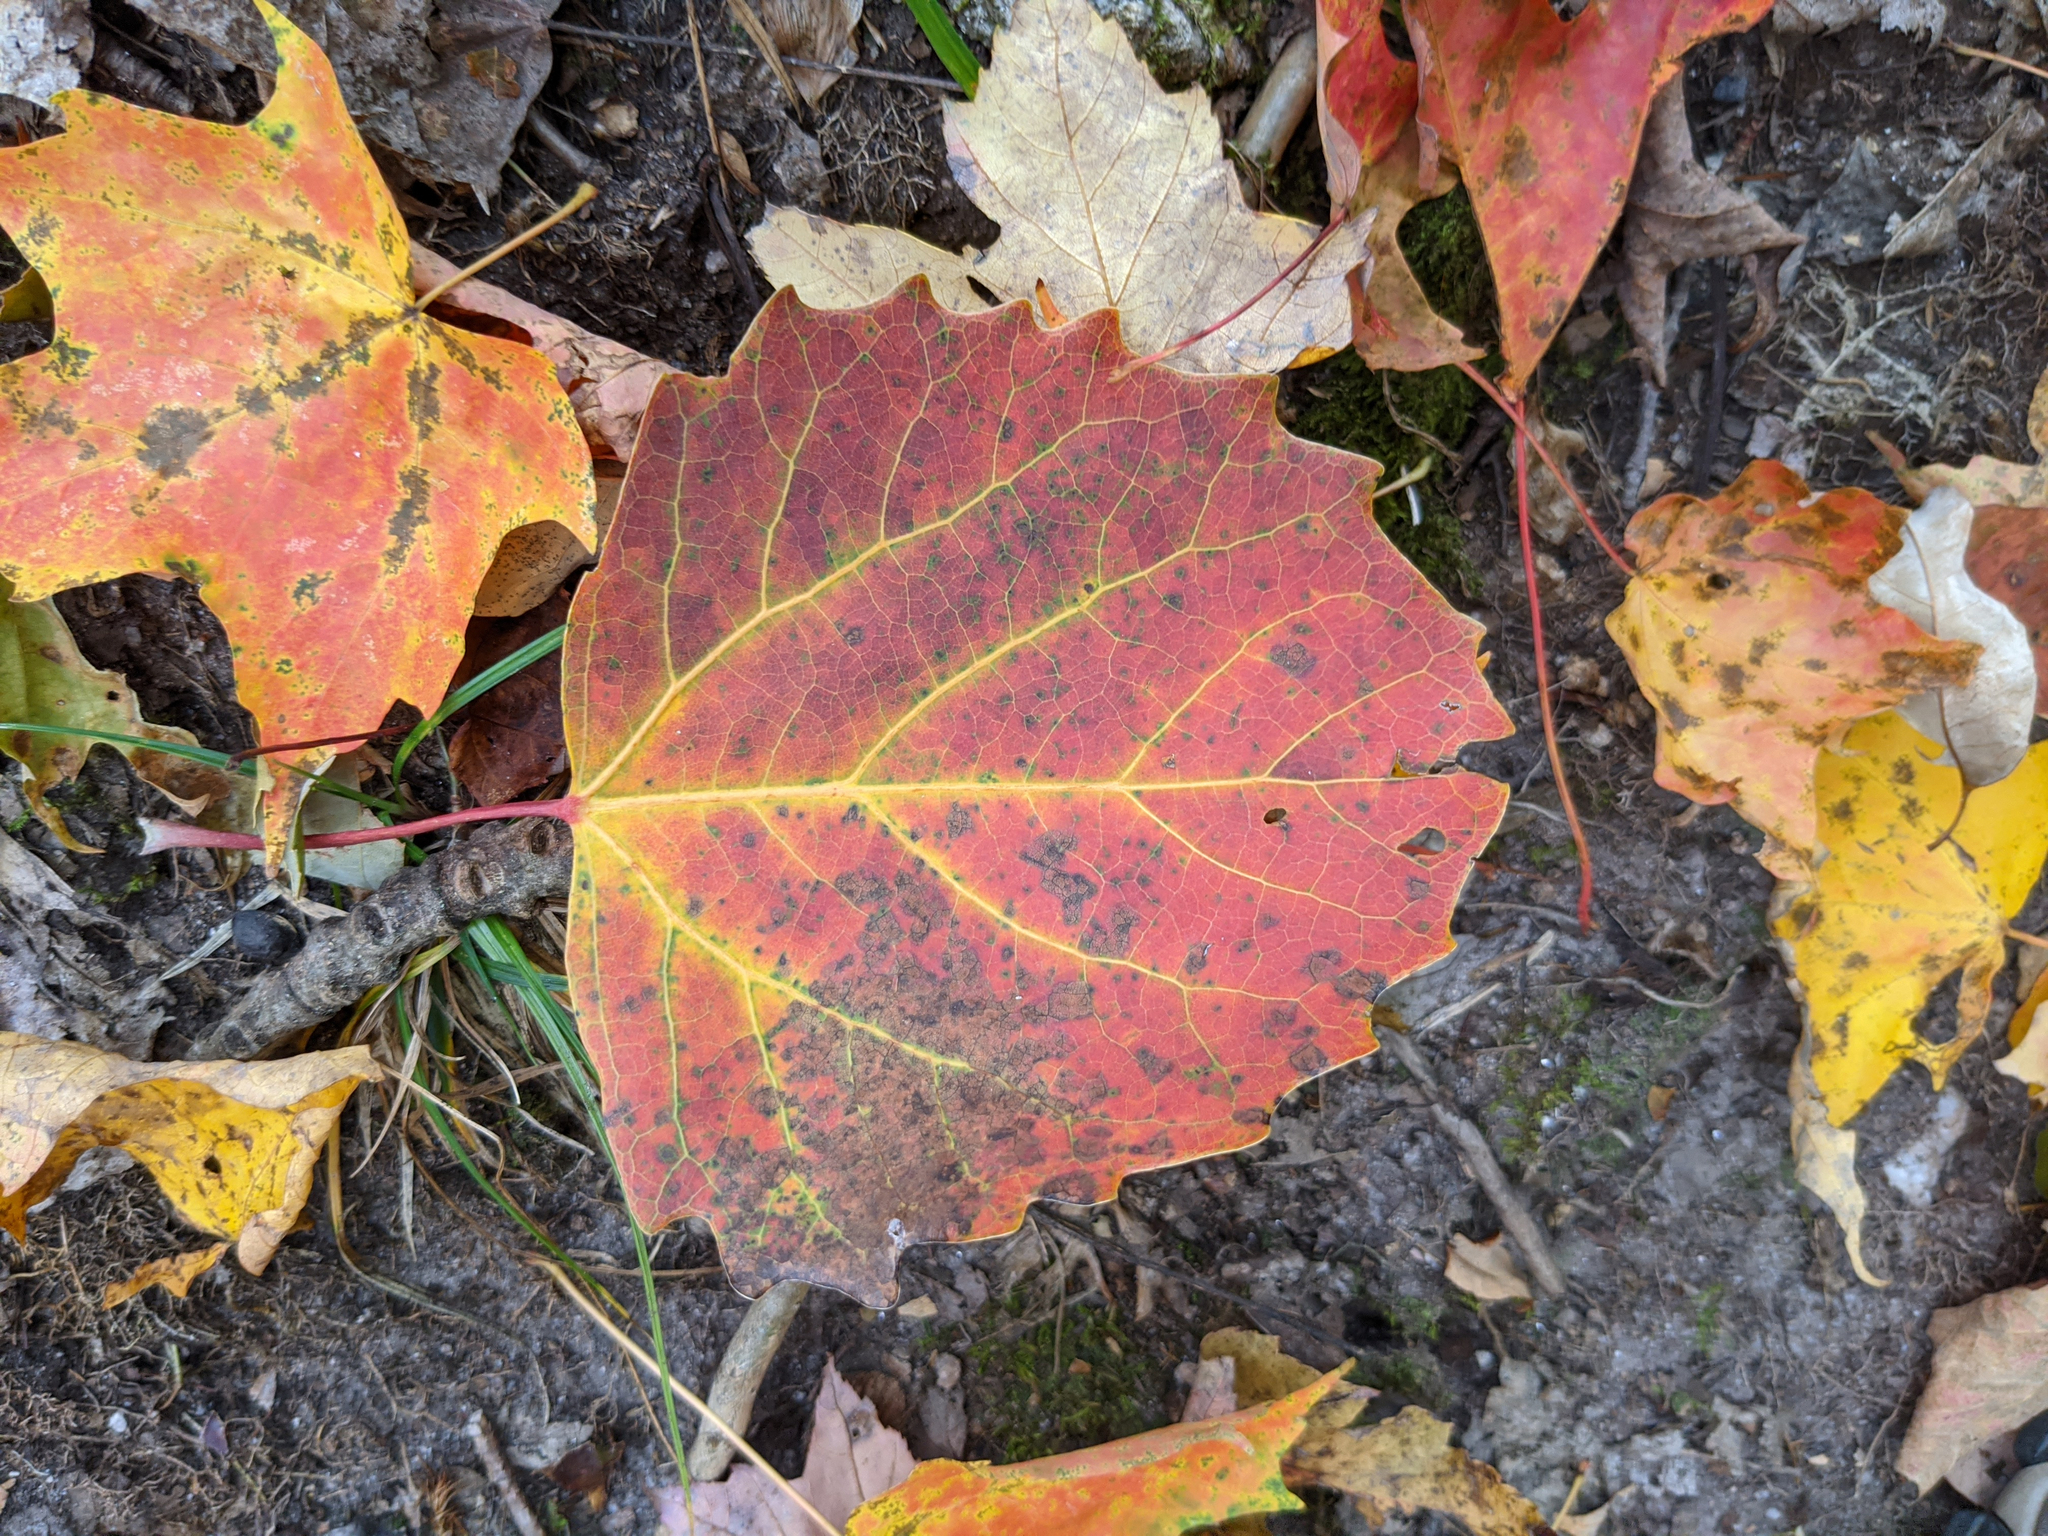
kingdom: Plantae
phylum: Tracheophyta
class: Magnoliopsida
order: Malpighiales
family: Salicaceae
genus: Populus
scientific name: Populus grandidentata
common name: Bigtooth aspen
